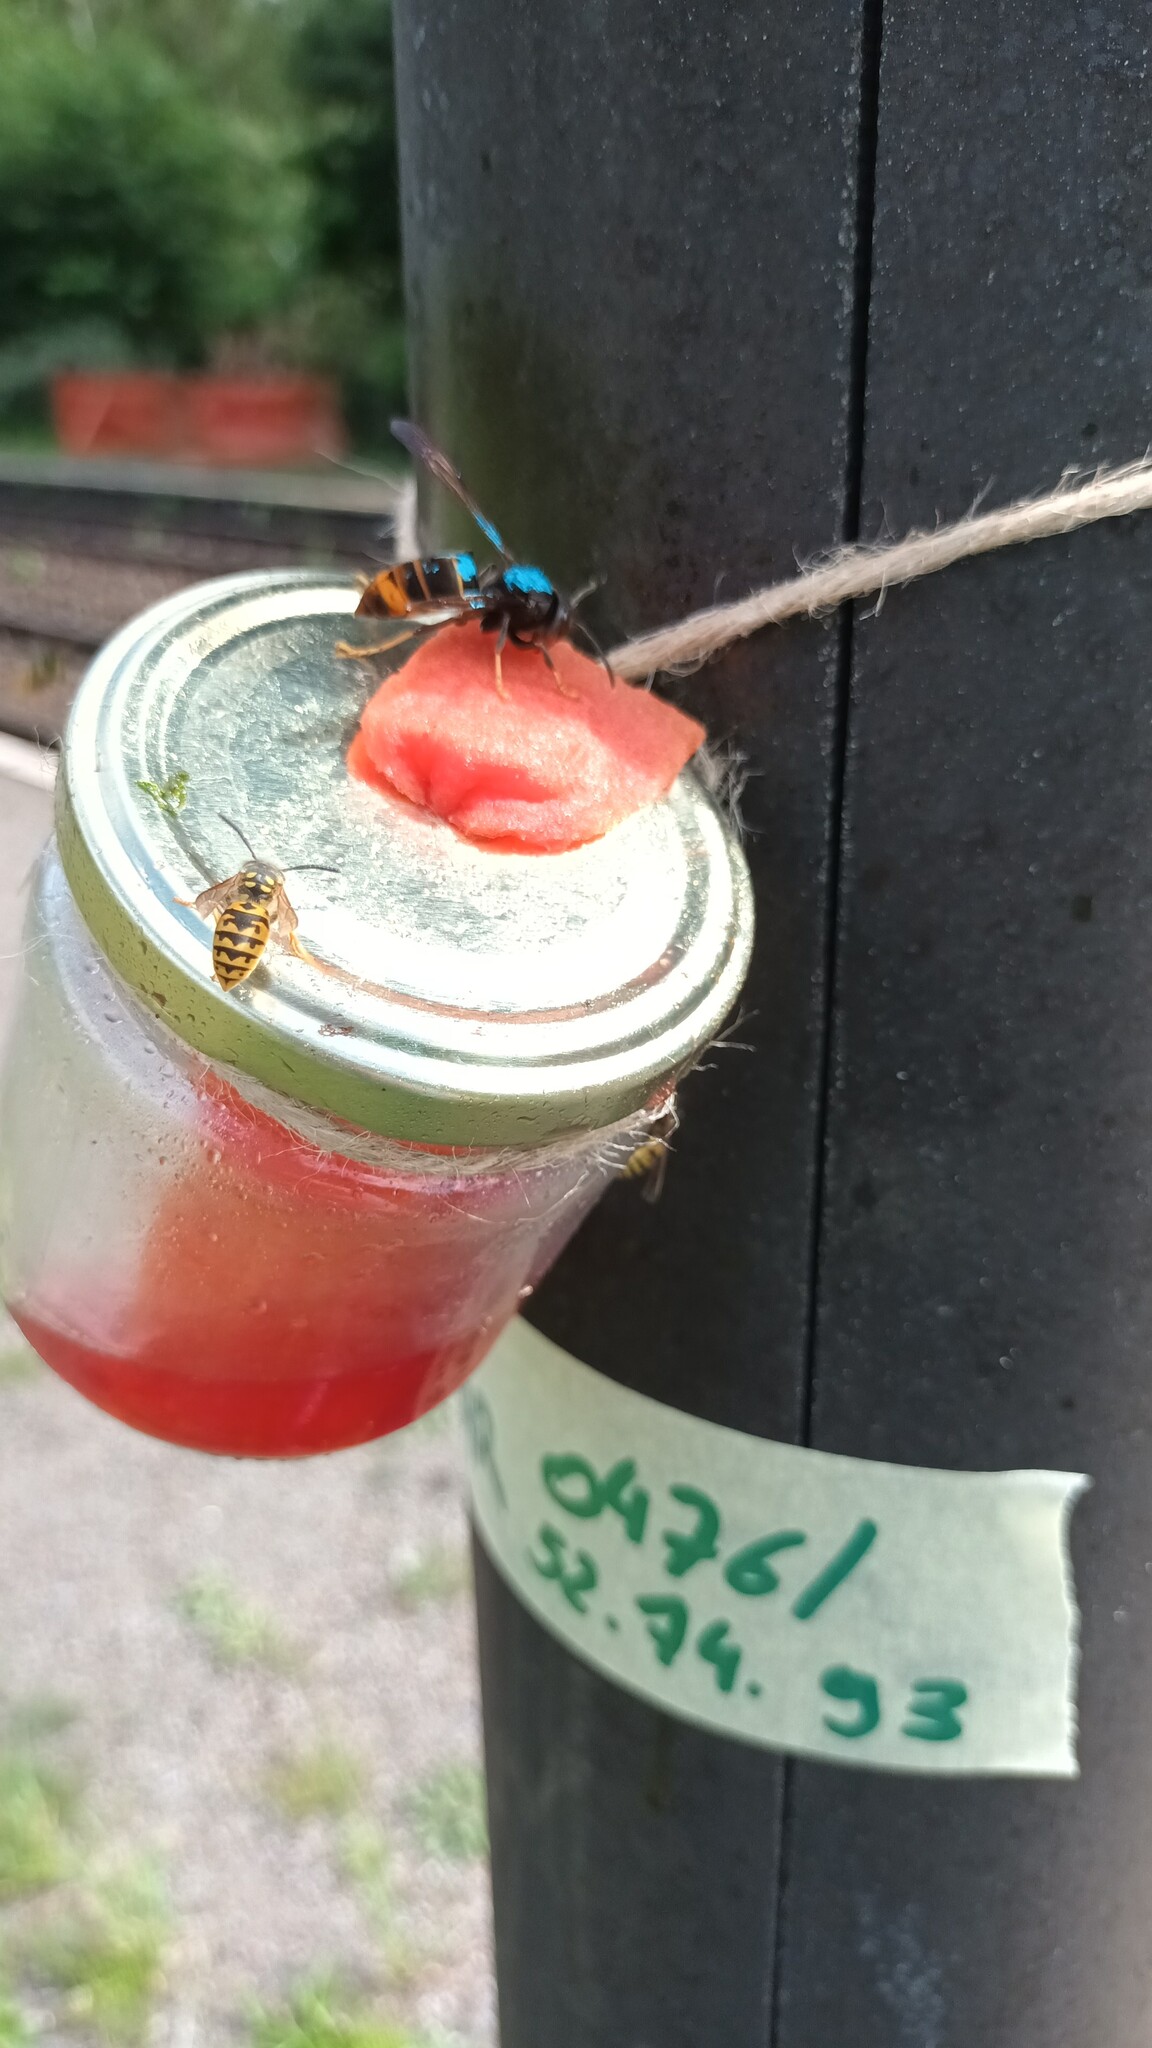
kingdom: Animalia
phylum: Arthropoda
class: Insecta
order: Hymenoptera
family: Vespidae
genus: Vespa
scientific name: Vespa velutina
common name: Asian hornet
